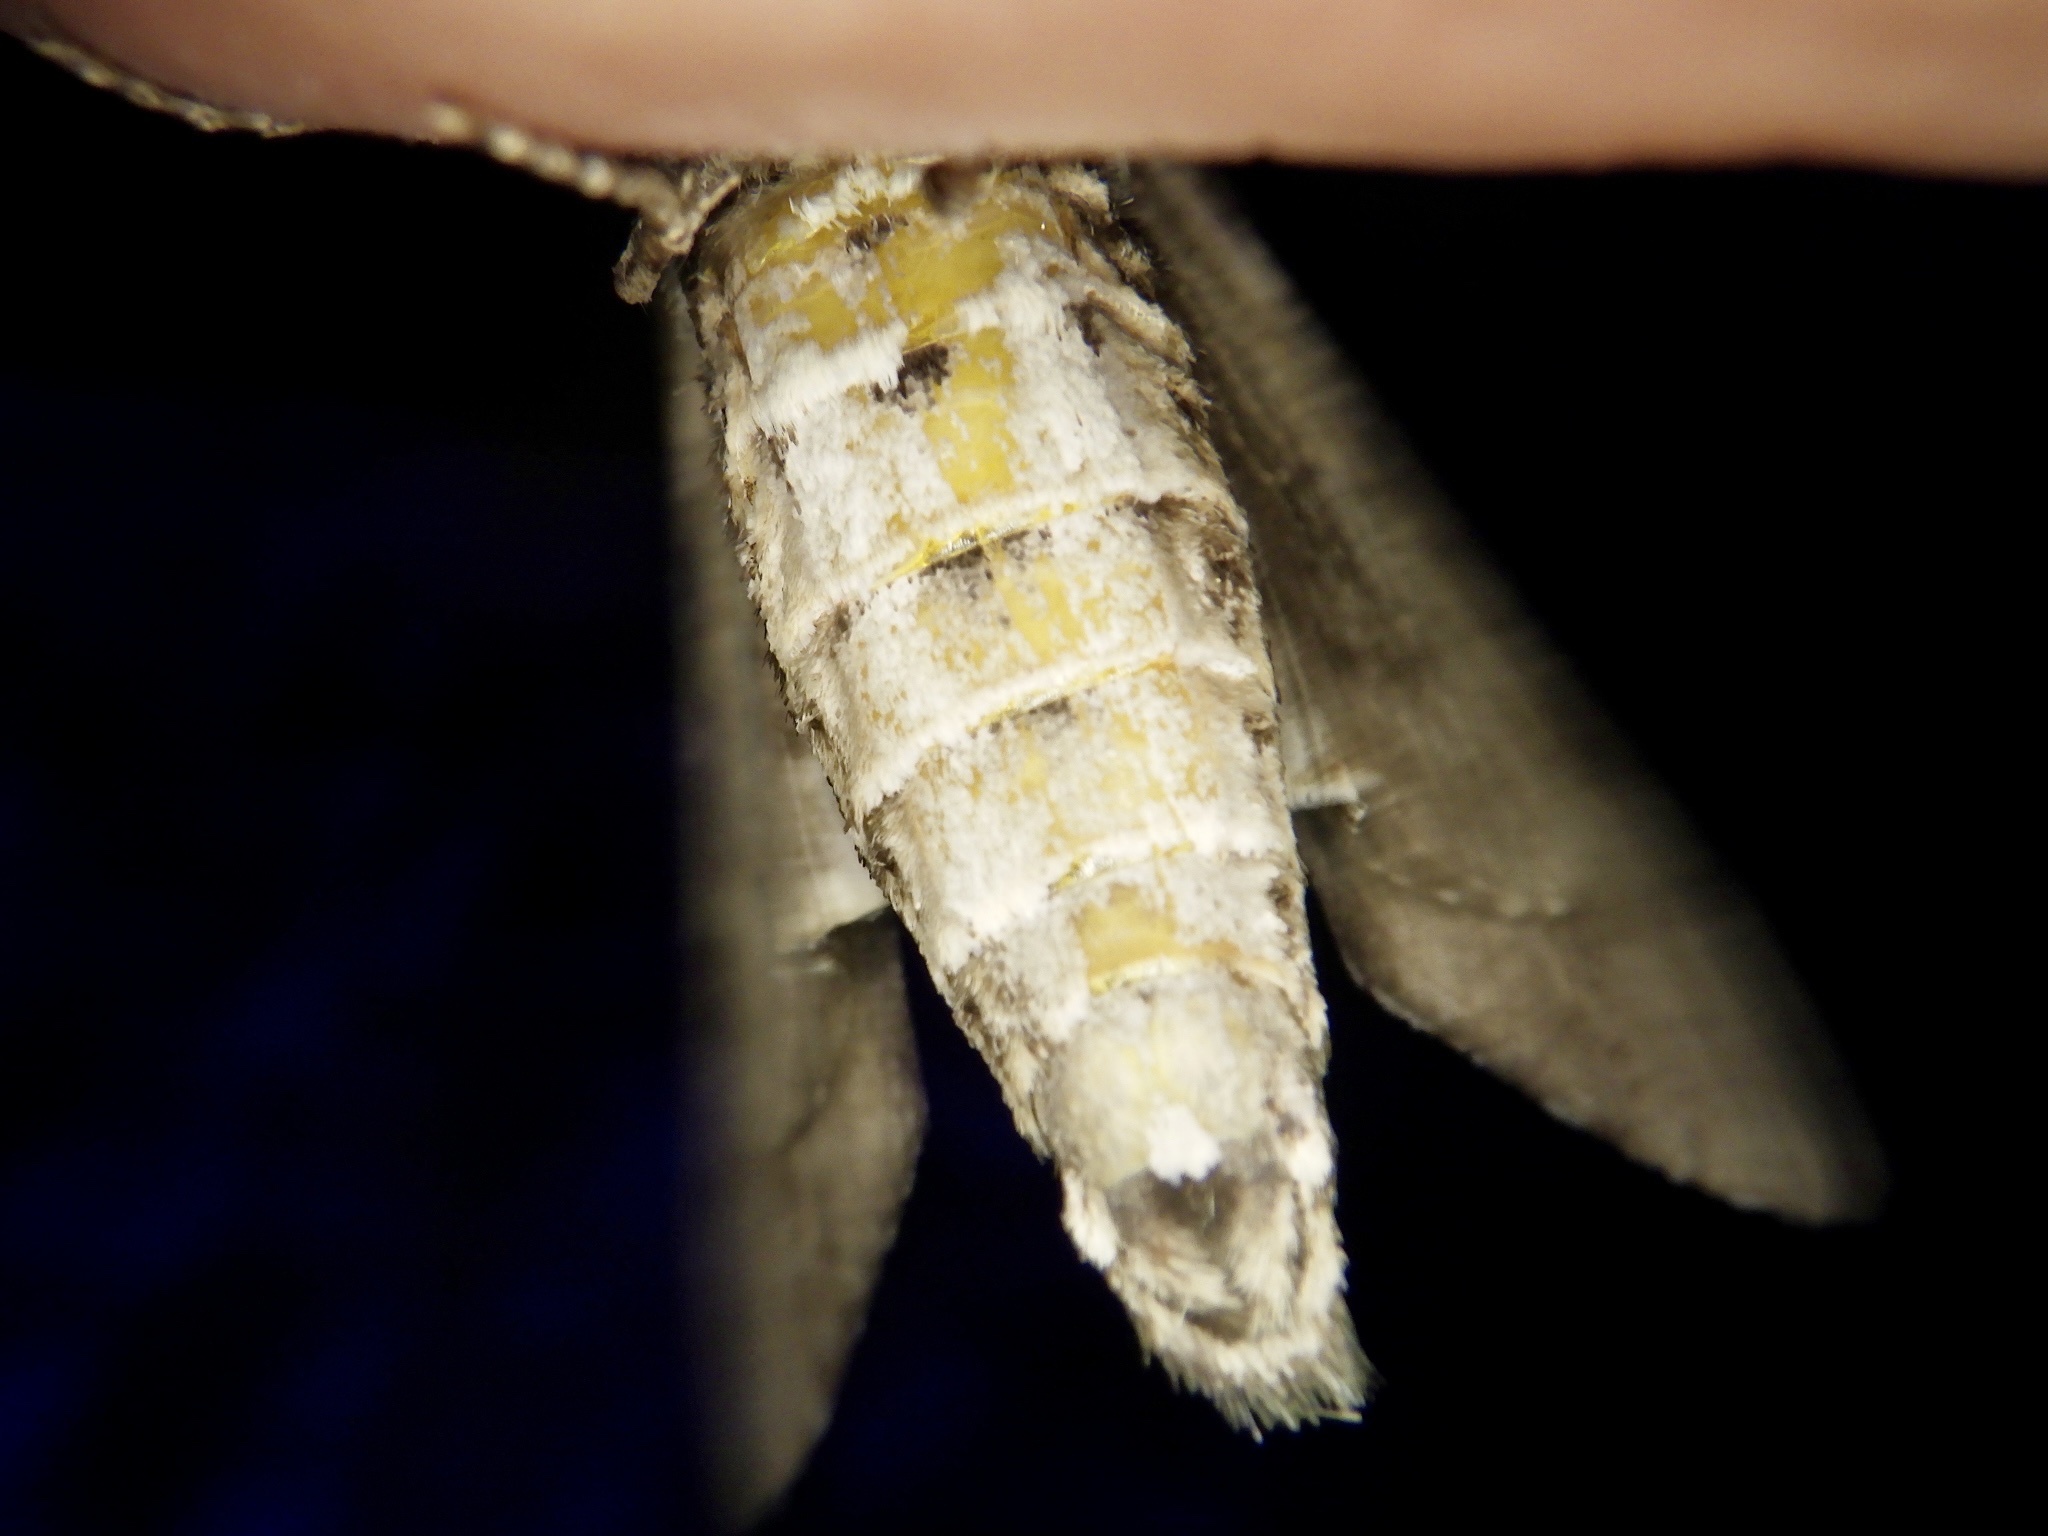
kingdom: Animalia
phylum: Arthropoda
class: Insecta
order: Lepidoptera
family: Sphingidae
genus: Dolbina
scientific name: Dolbina tancrei
